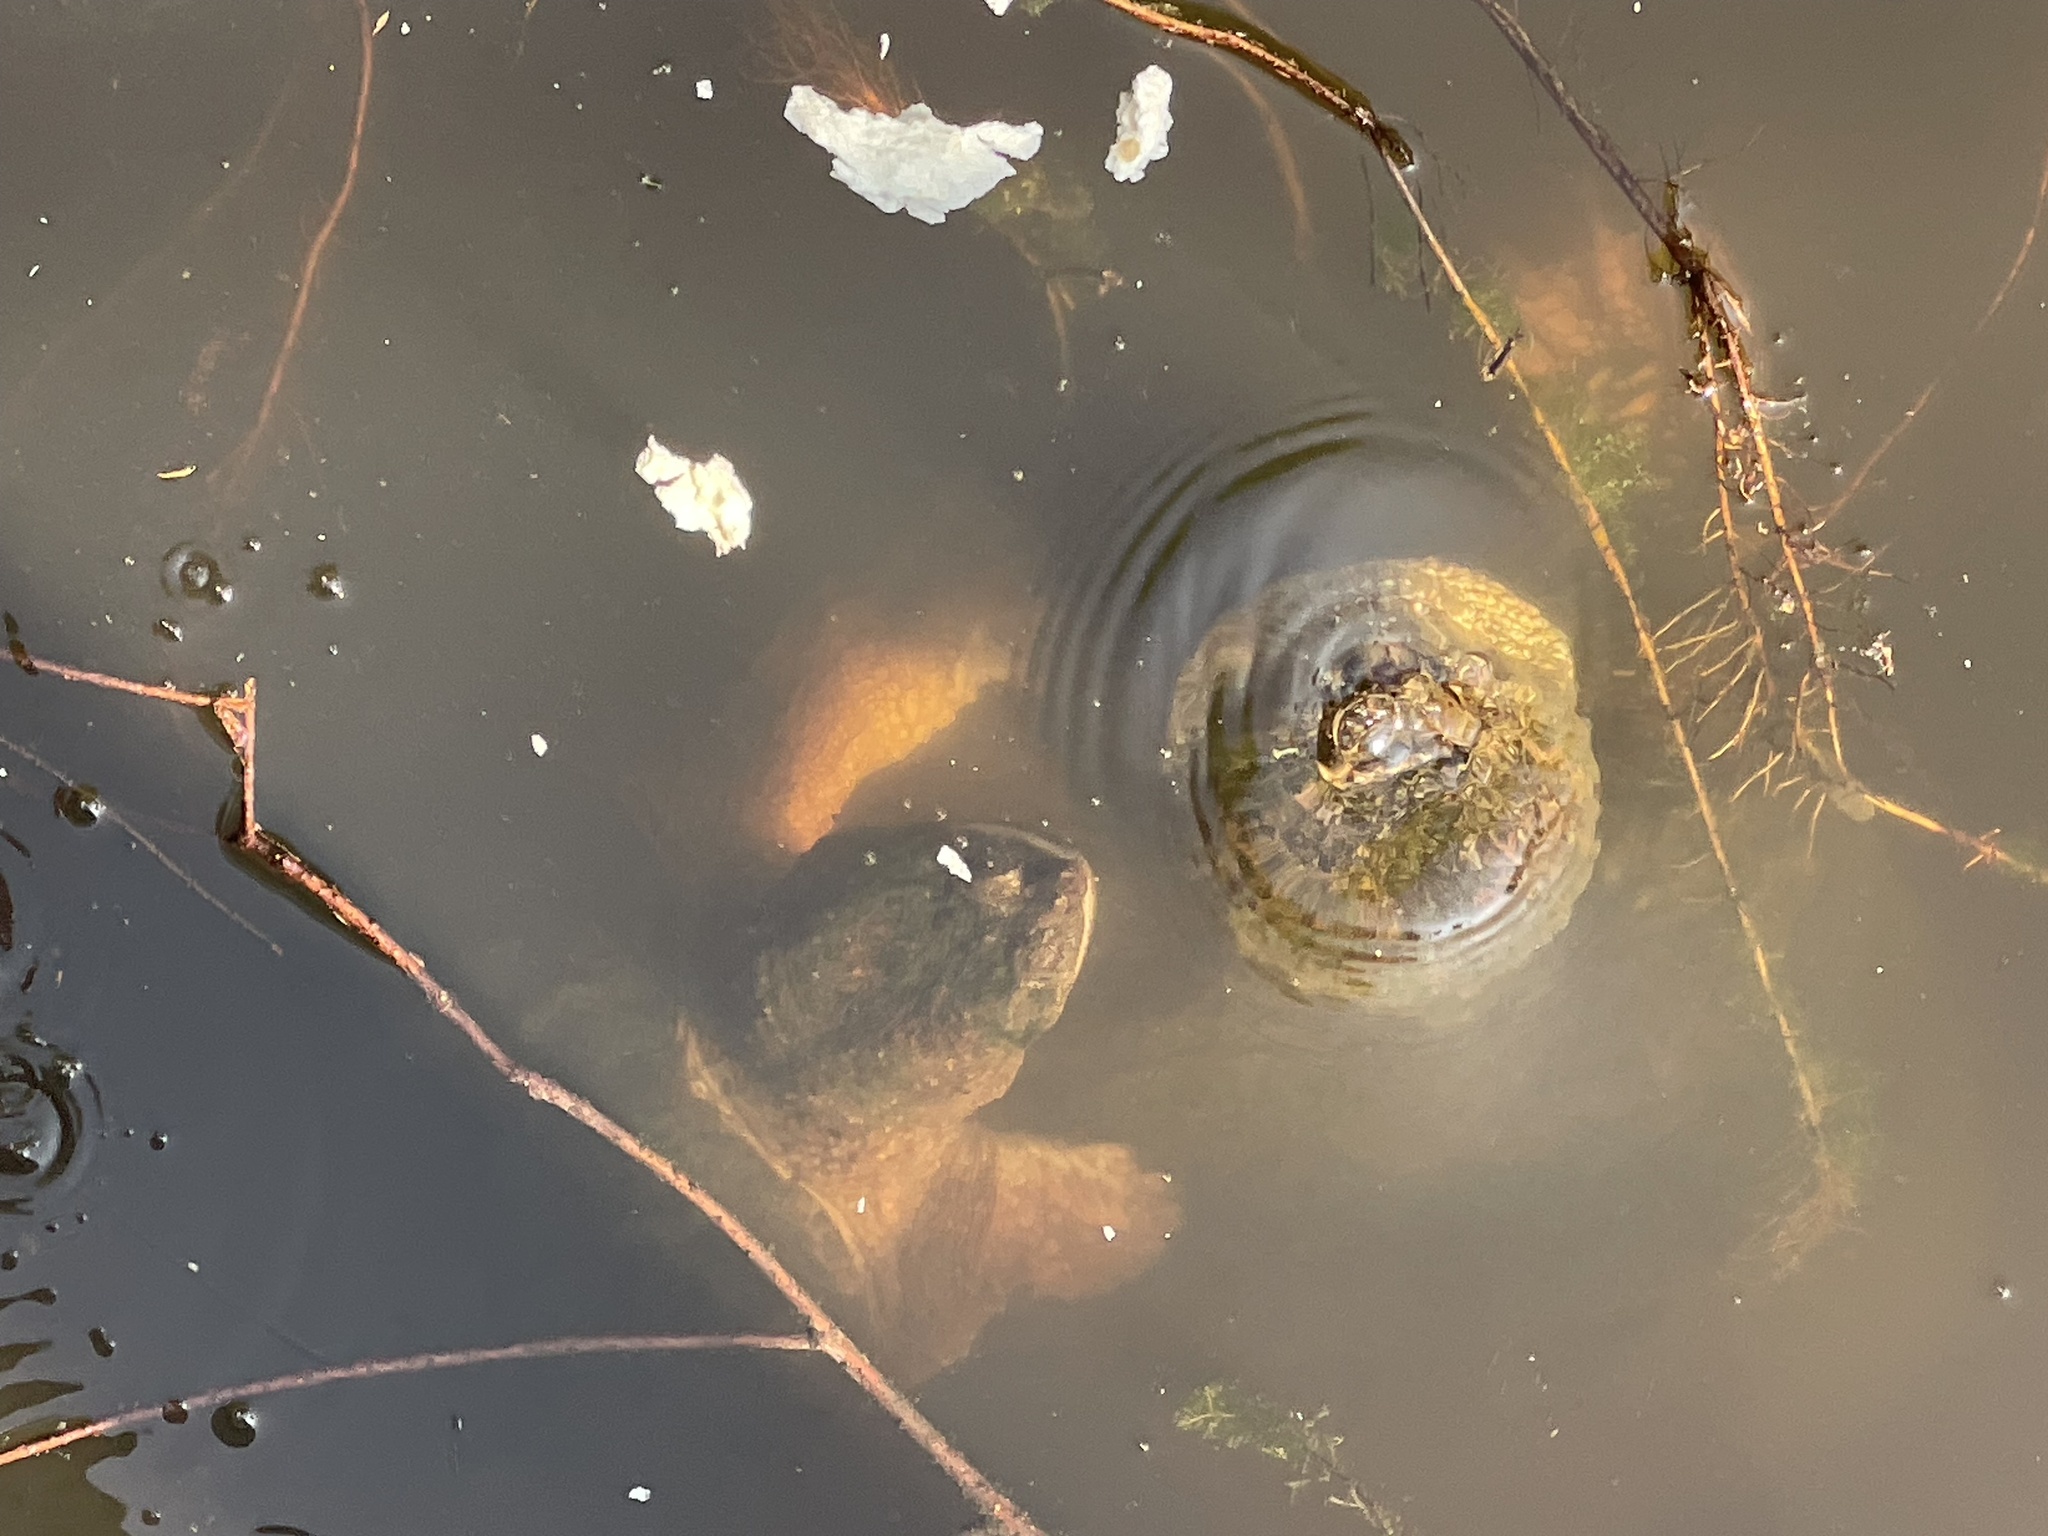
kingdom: Animalia
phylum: Chordata
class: Testudines
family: Chelydridae
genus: Chelydra
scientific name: Chelydra serpentina
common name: Common snapping turtle
